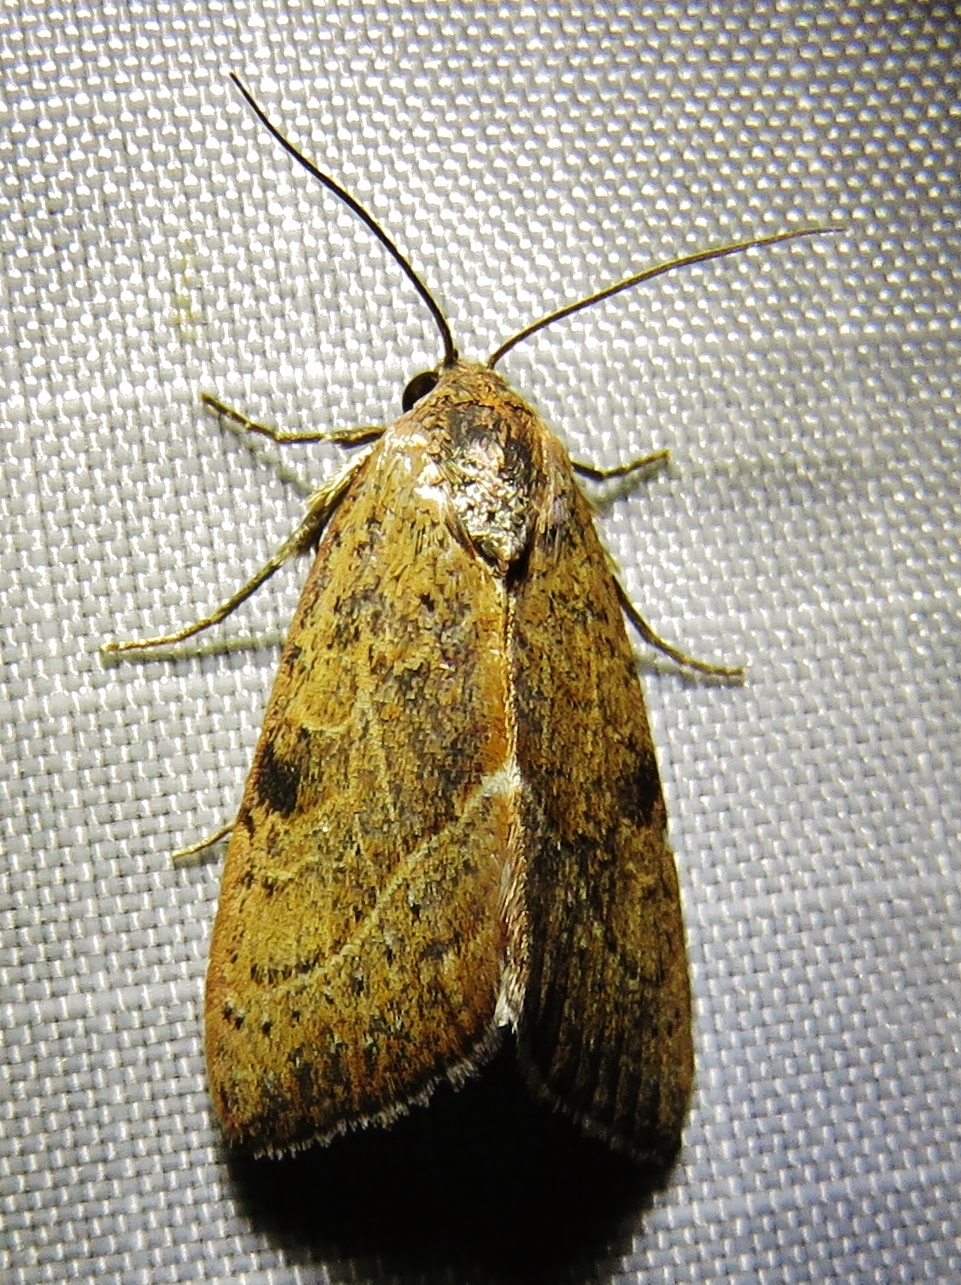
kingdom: Animalia
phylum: Arthropoda
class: Insecta
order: Lepidoptera
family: Noctuidae
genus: Galgula
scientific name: Galgula partita
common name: Wedgeling
